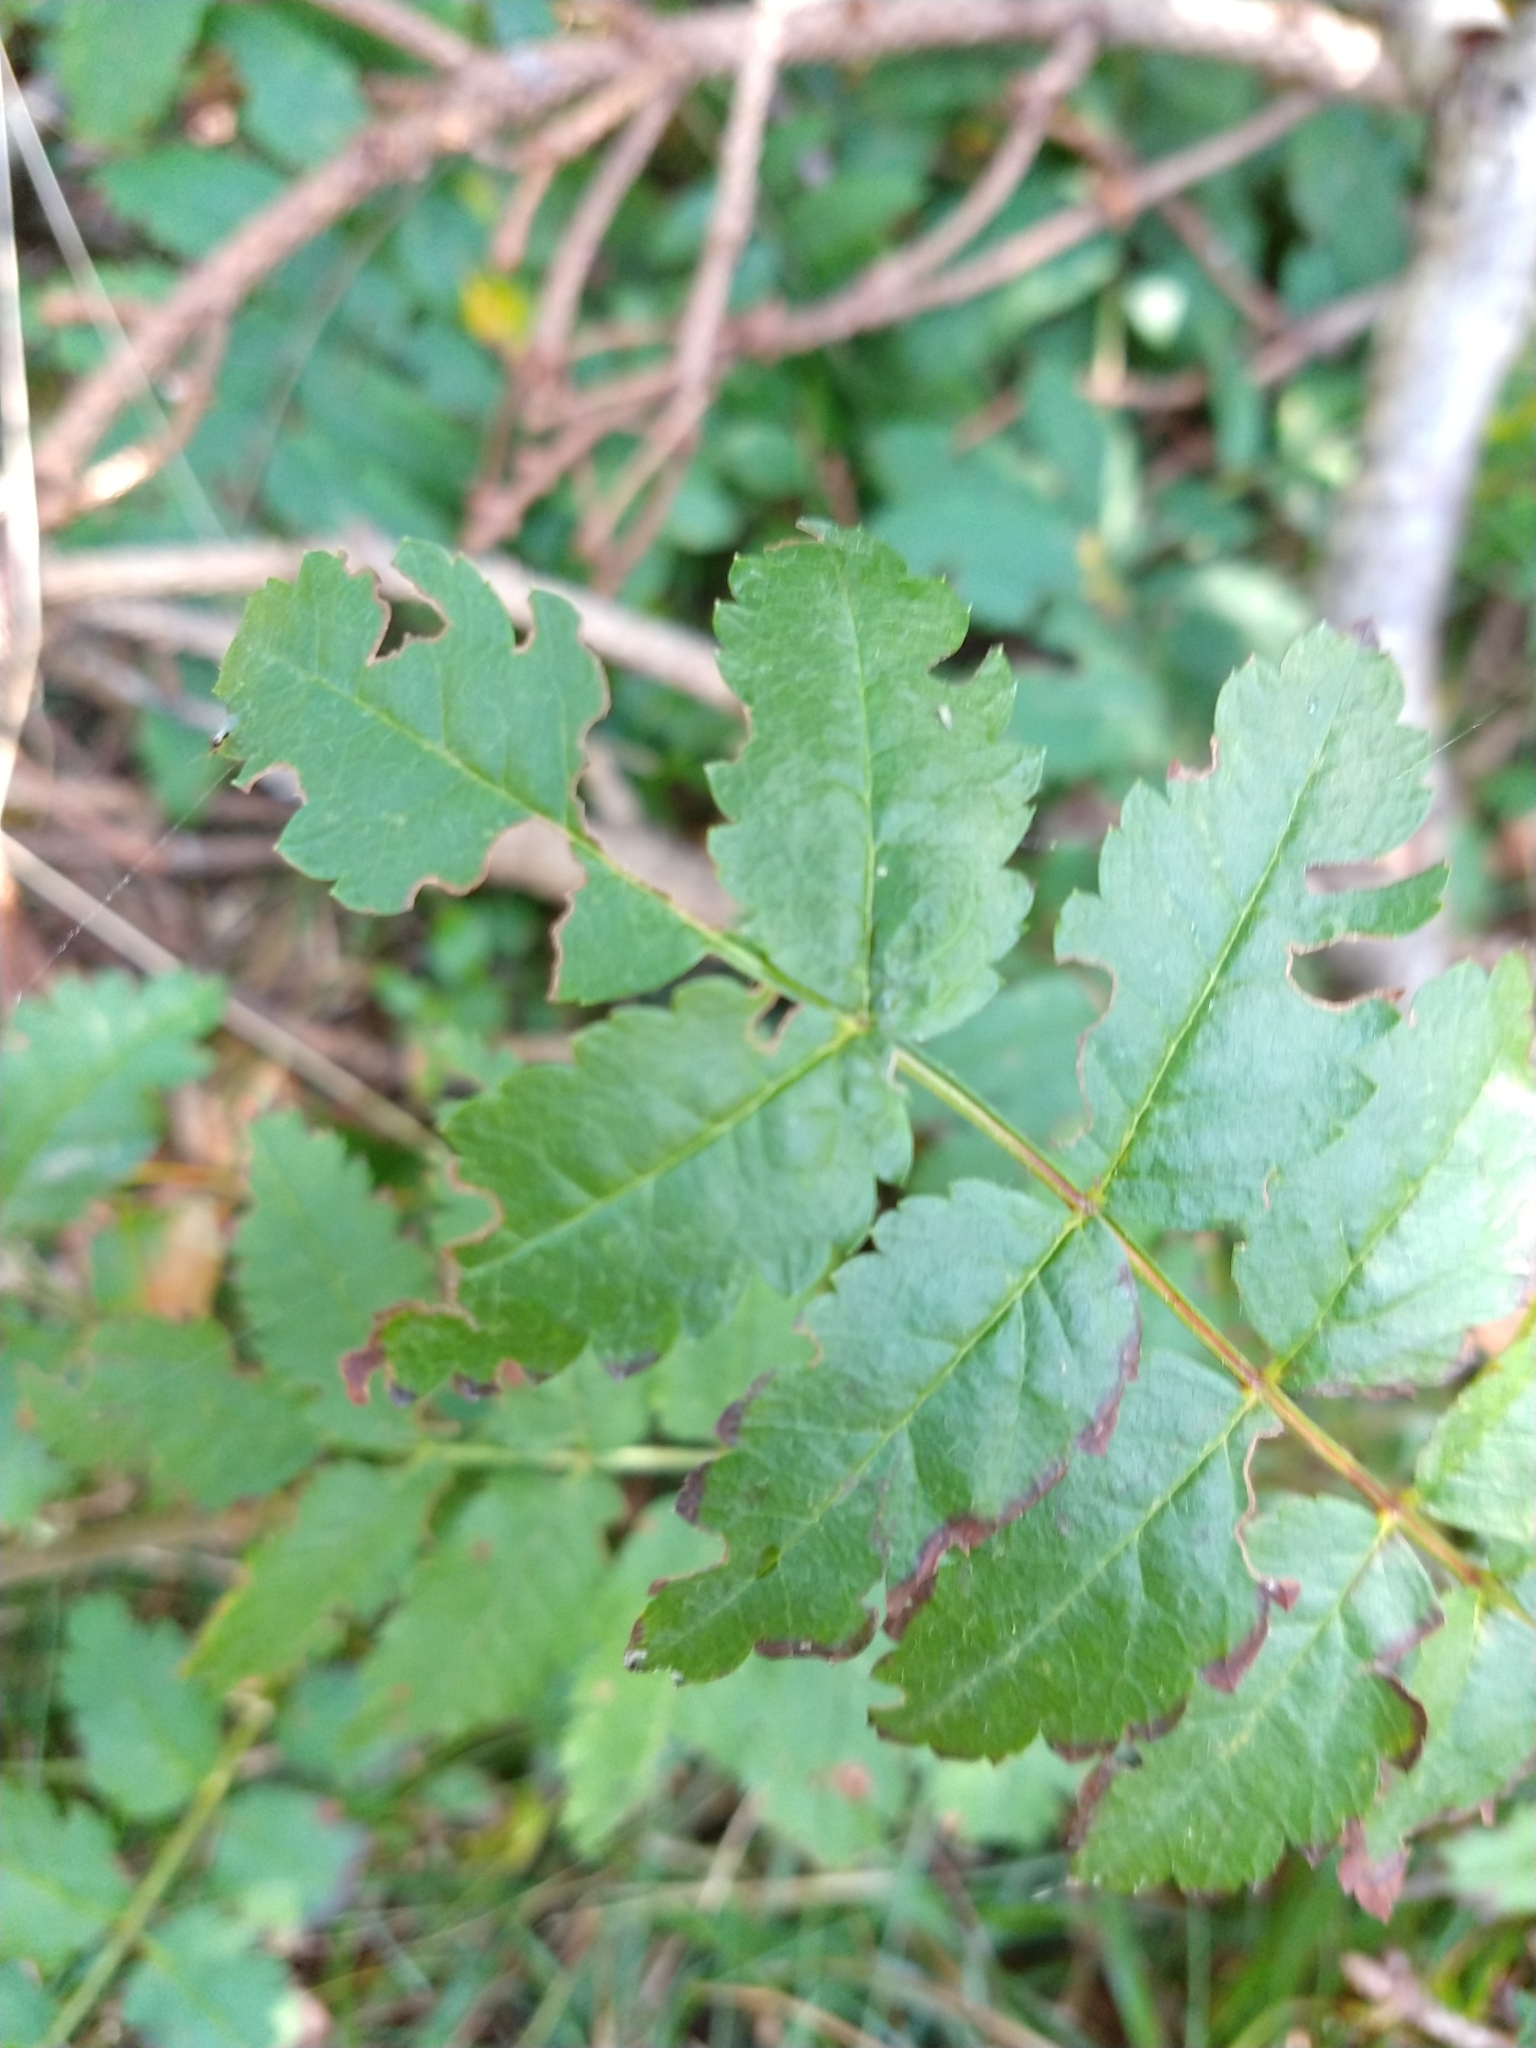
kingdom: Plantae
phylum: Tracheophyta
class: Magnoliopsida
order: Rosales
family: Rosaceae
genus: Sorbus
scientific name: Sorbus aucuparia
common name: Rowan
